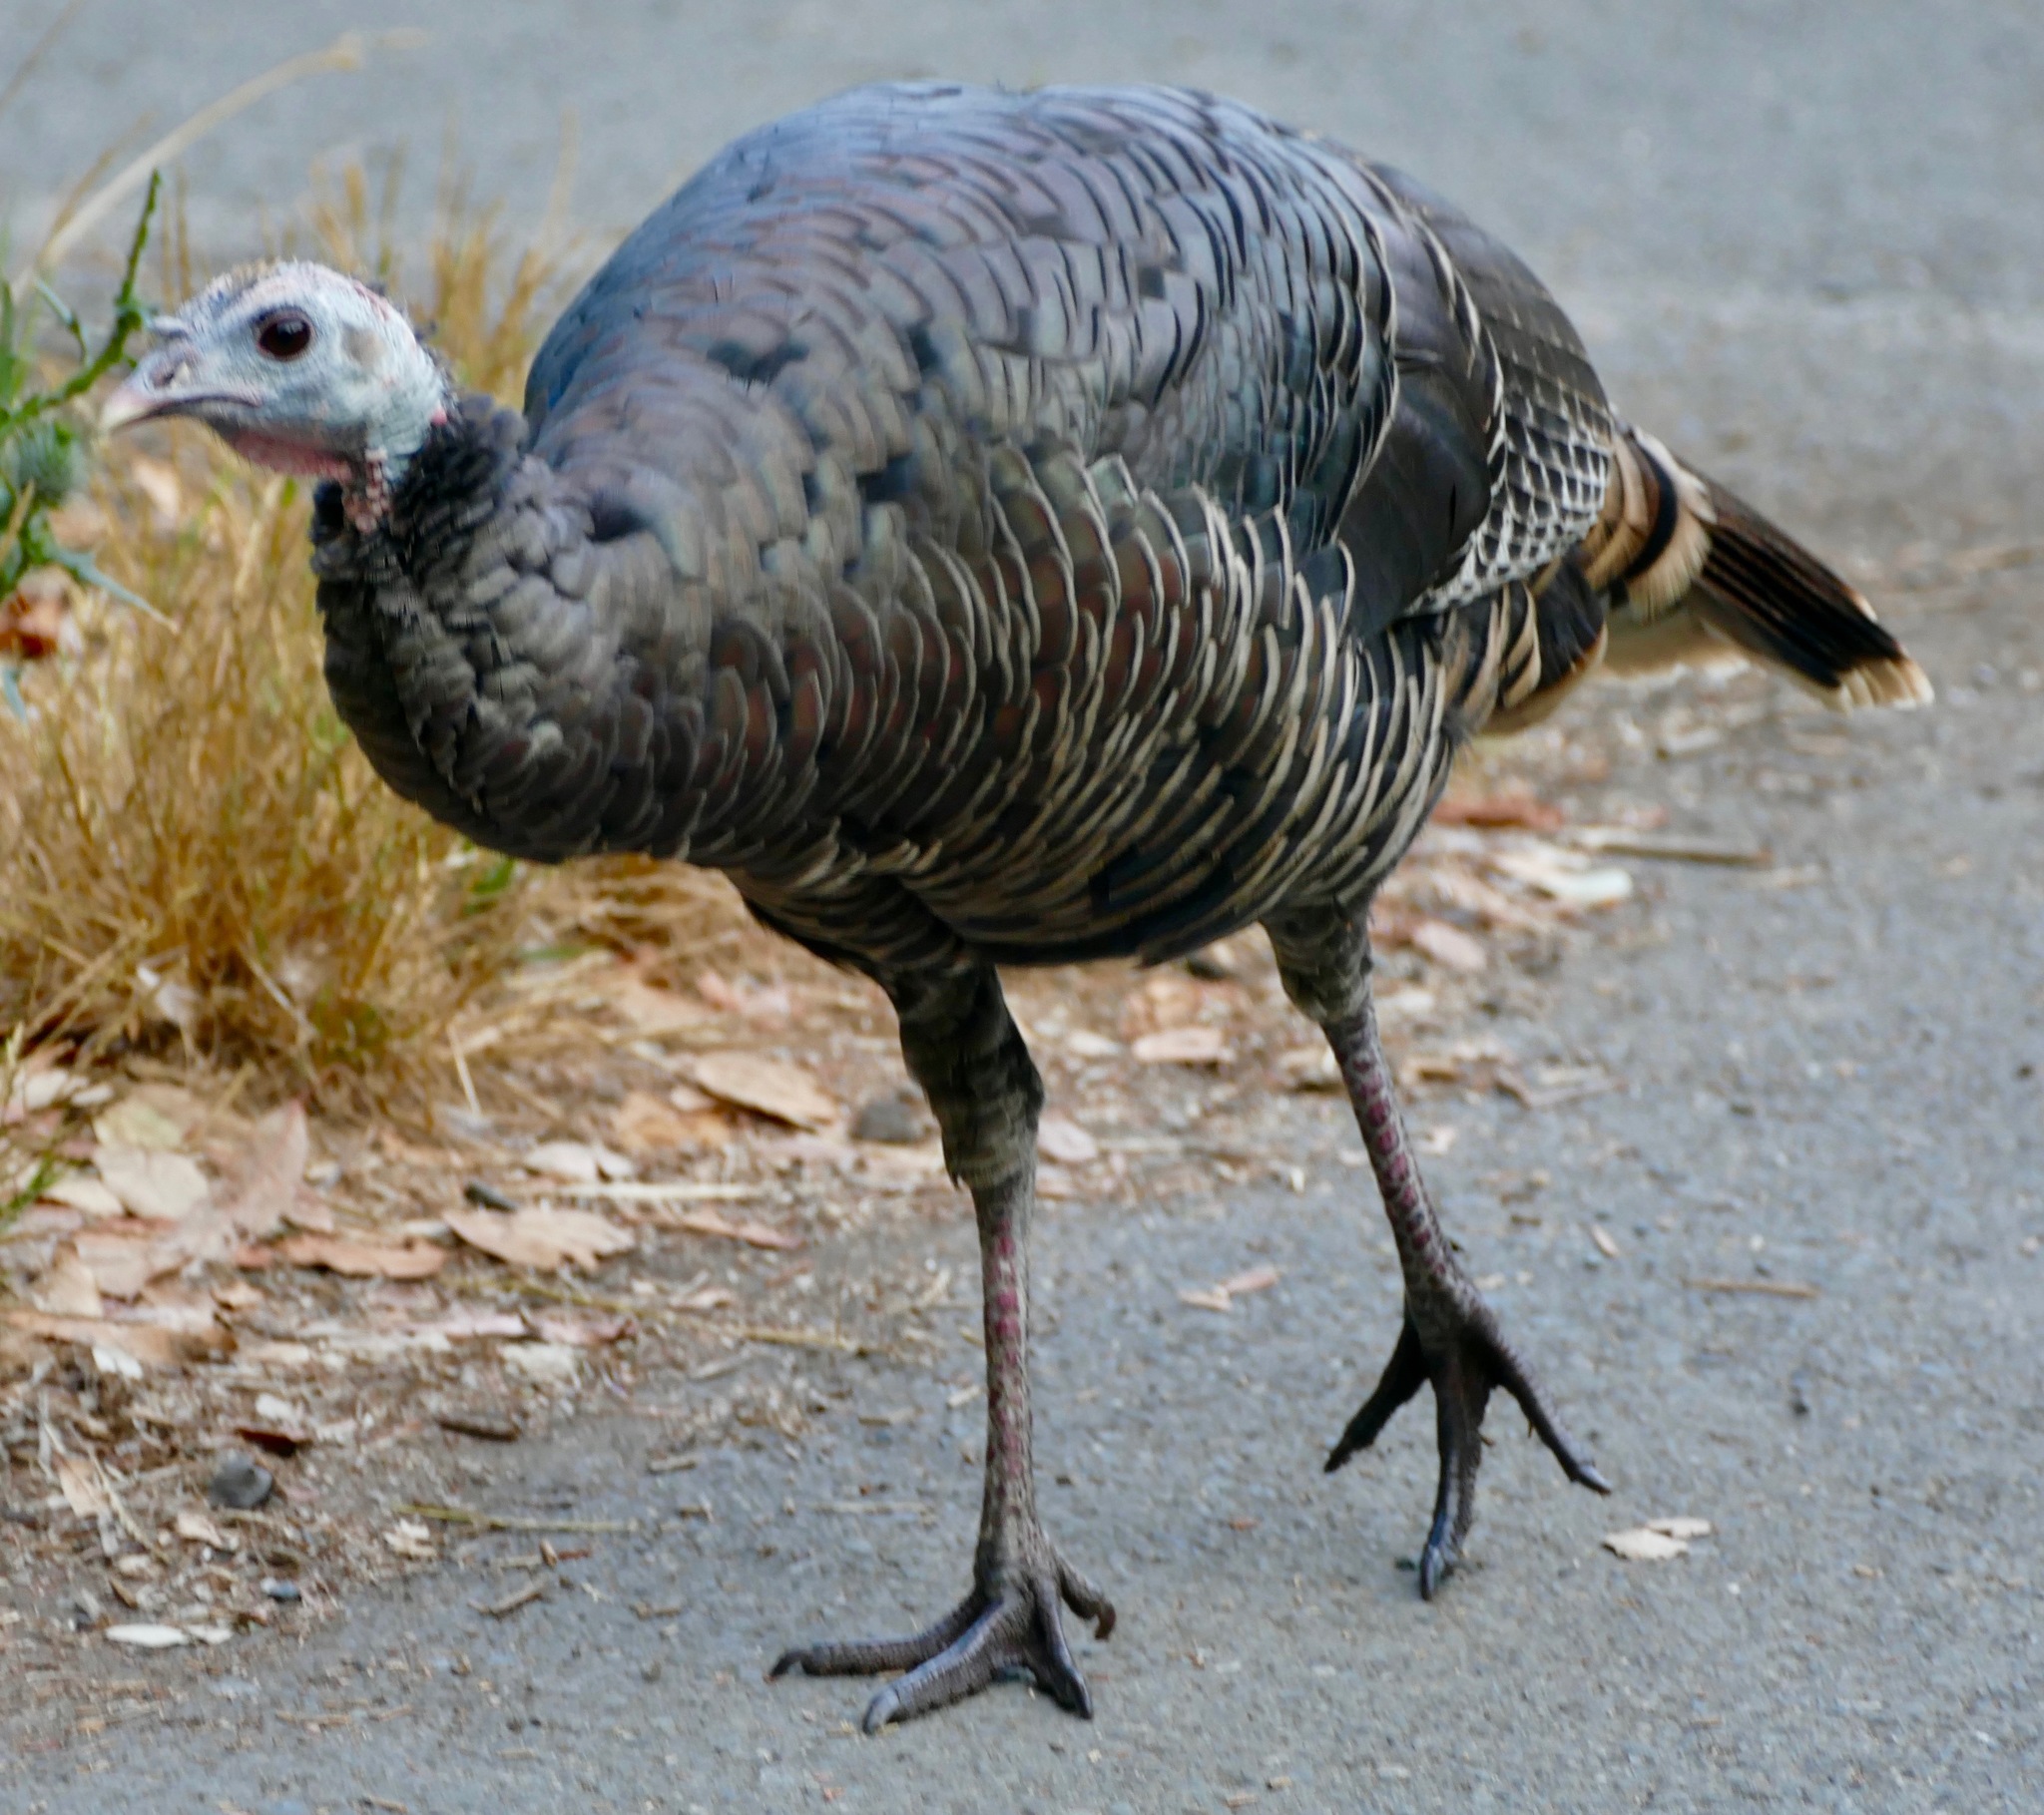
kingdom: Animalia
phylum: Chordata
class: Aves
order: Galliformes
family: Phasianidae
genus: Meleagris
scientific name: Meleagris gallopavo
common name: Wild turkey
